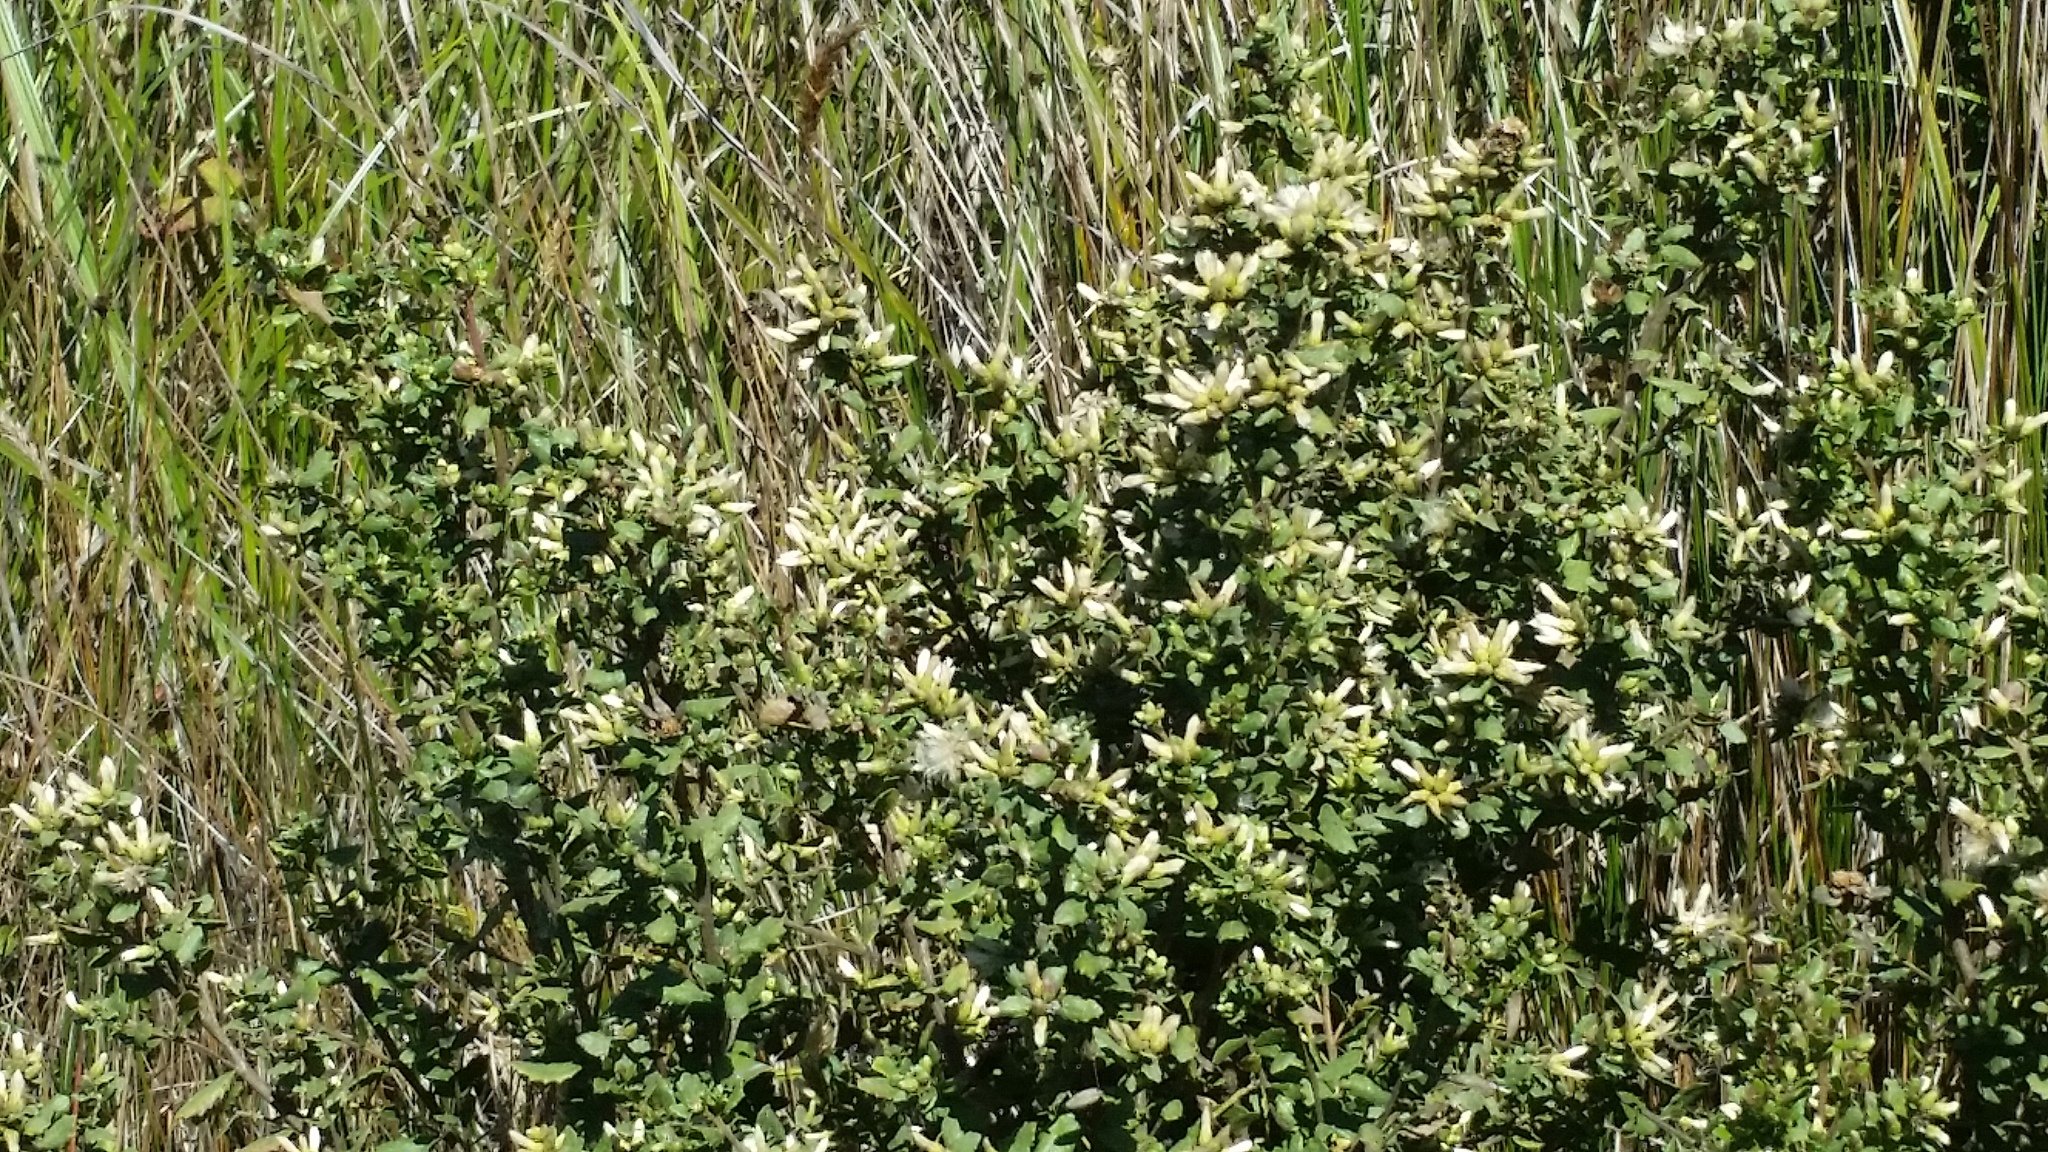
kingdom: Plantae
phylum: Tracheophyta
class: Magnoliopsida
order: Asterales
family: Asteraceae
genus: Baccharis
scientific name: Baccharis pilularis
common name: Coyotebrush
